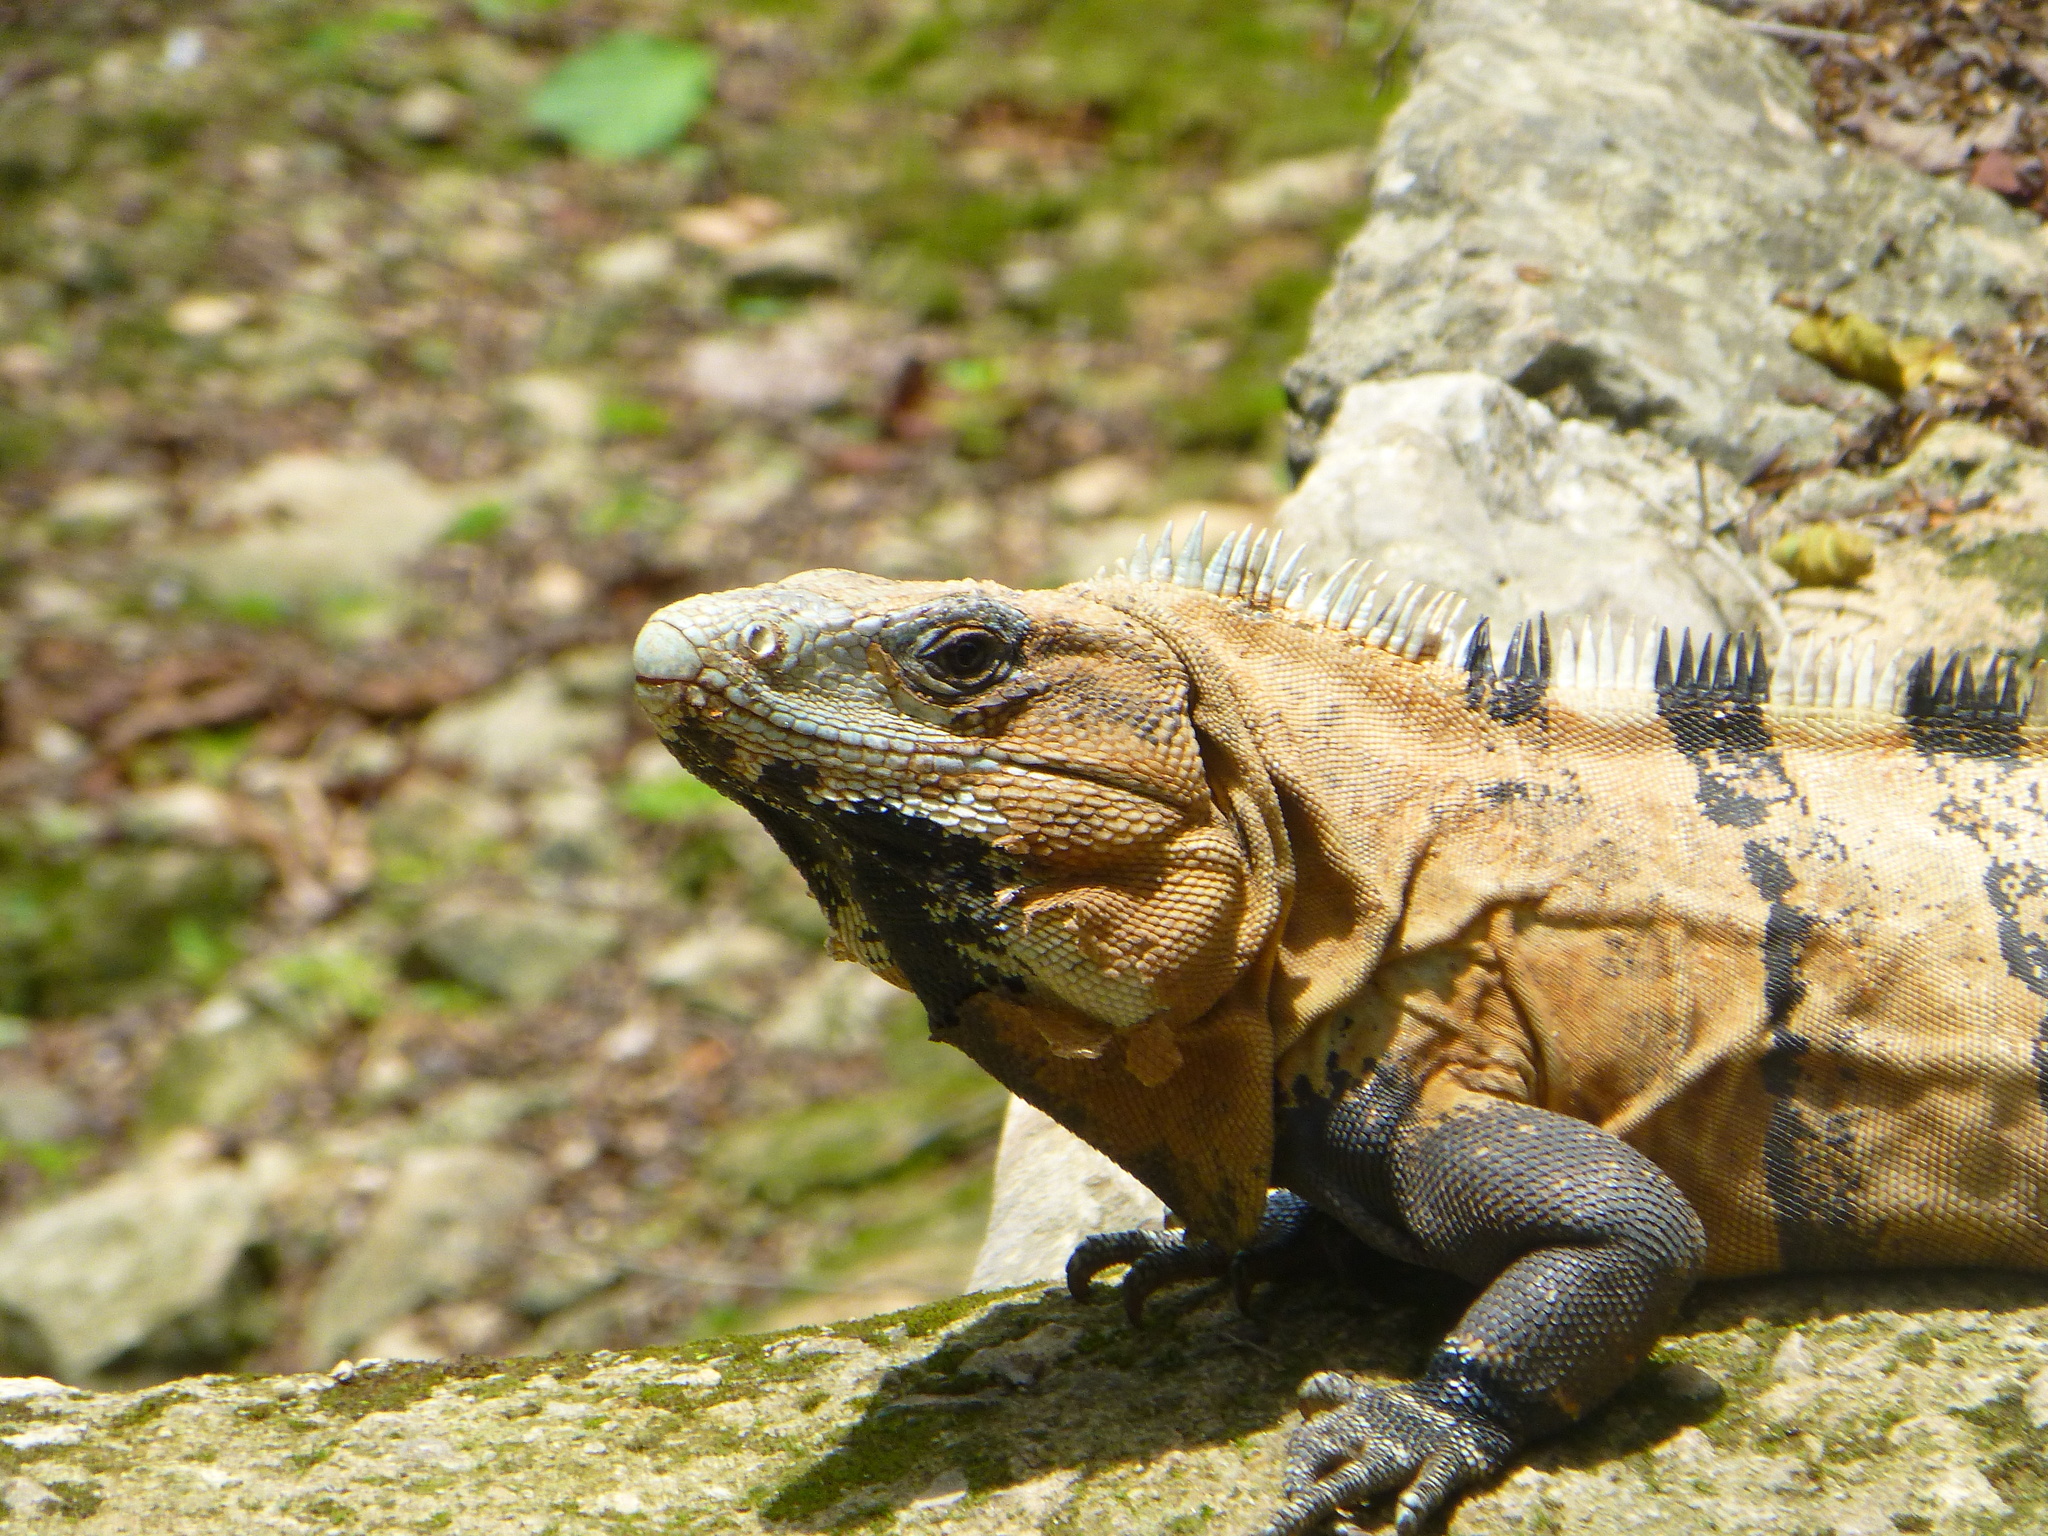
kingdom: Animalia
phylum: Chordata
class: Squamata
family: Iguanidae
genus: Ctenosaura
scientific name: Ctenosaura similis
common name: Black spiny-tailed iguana
